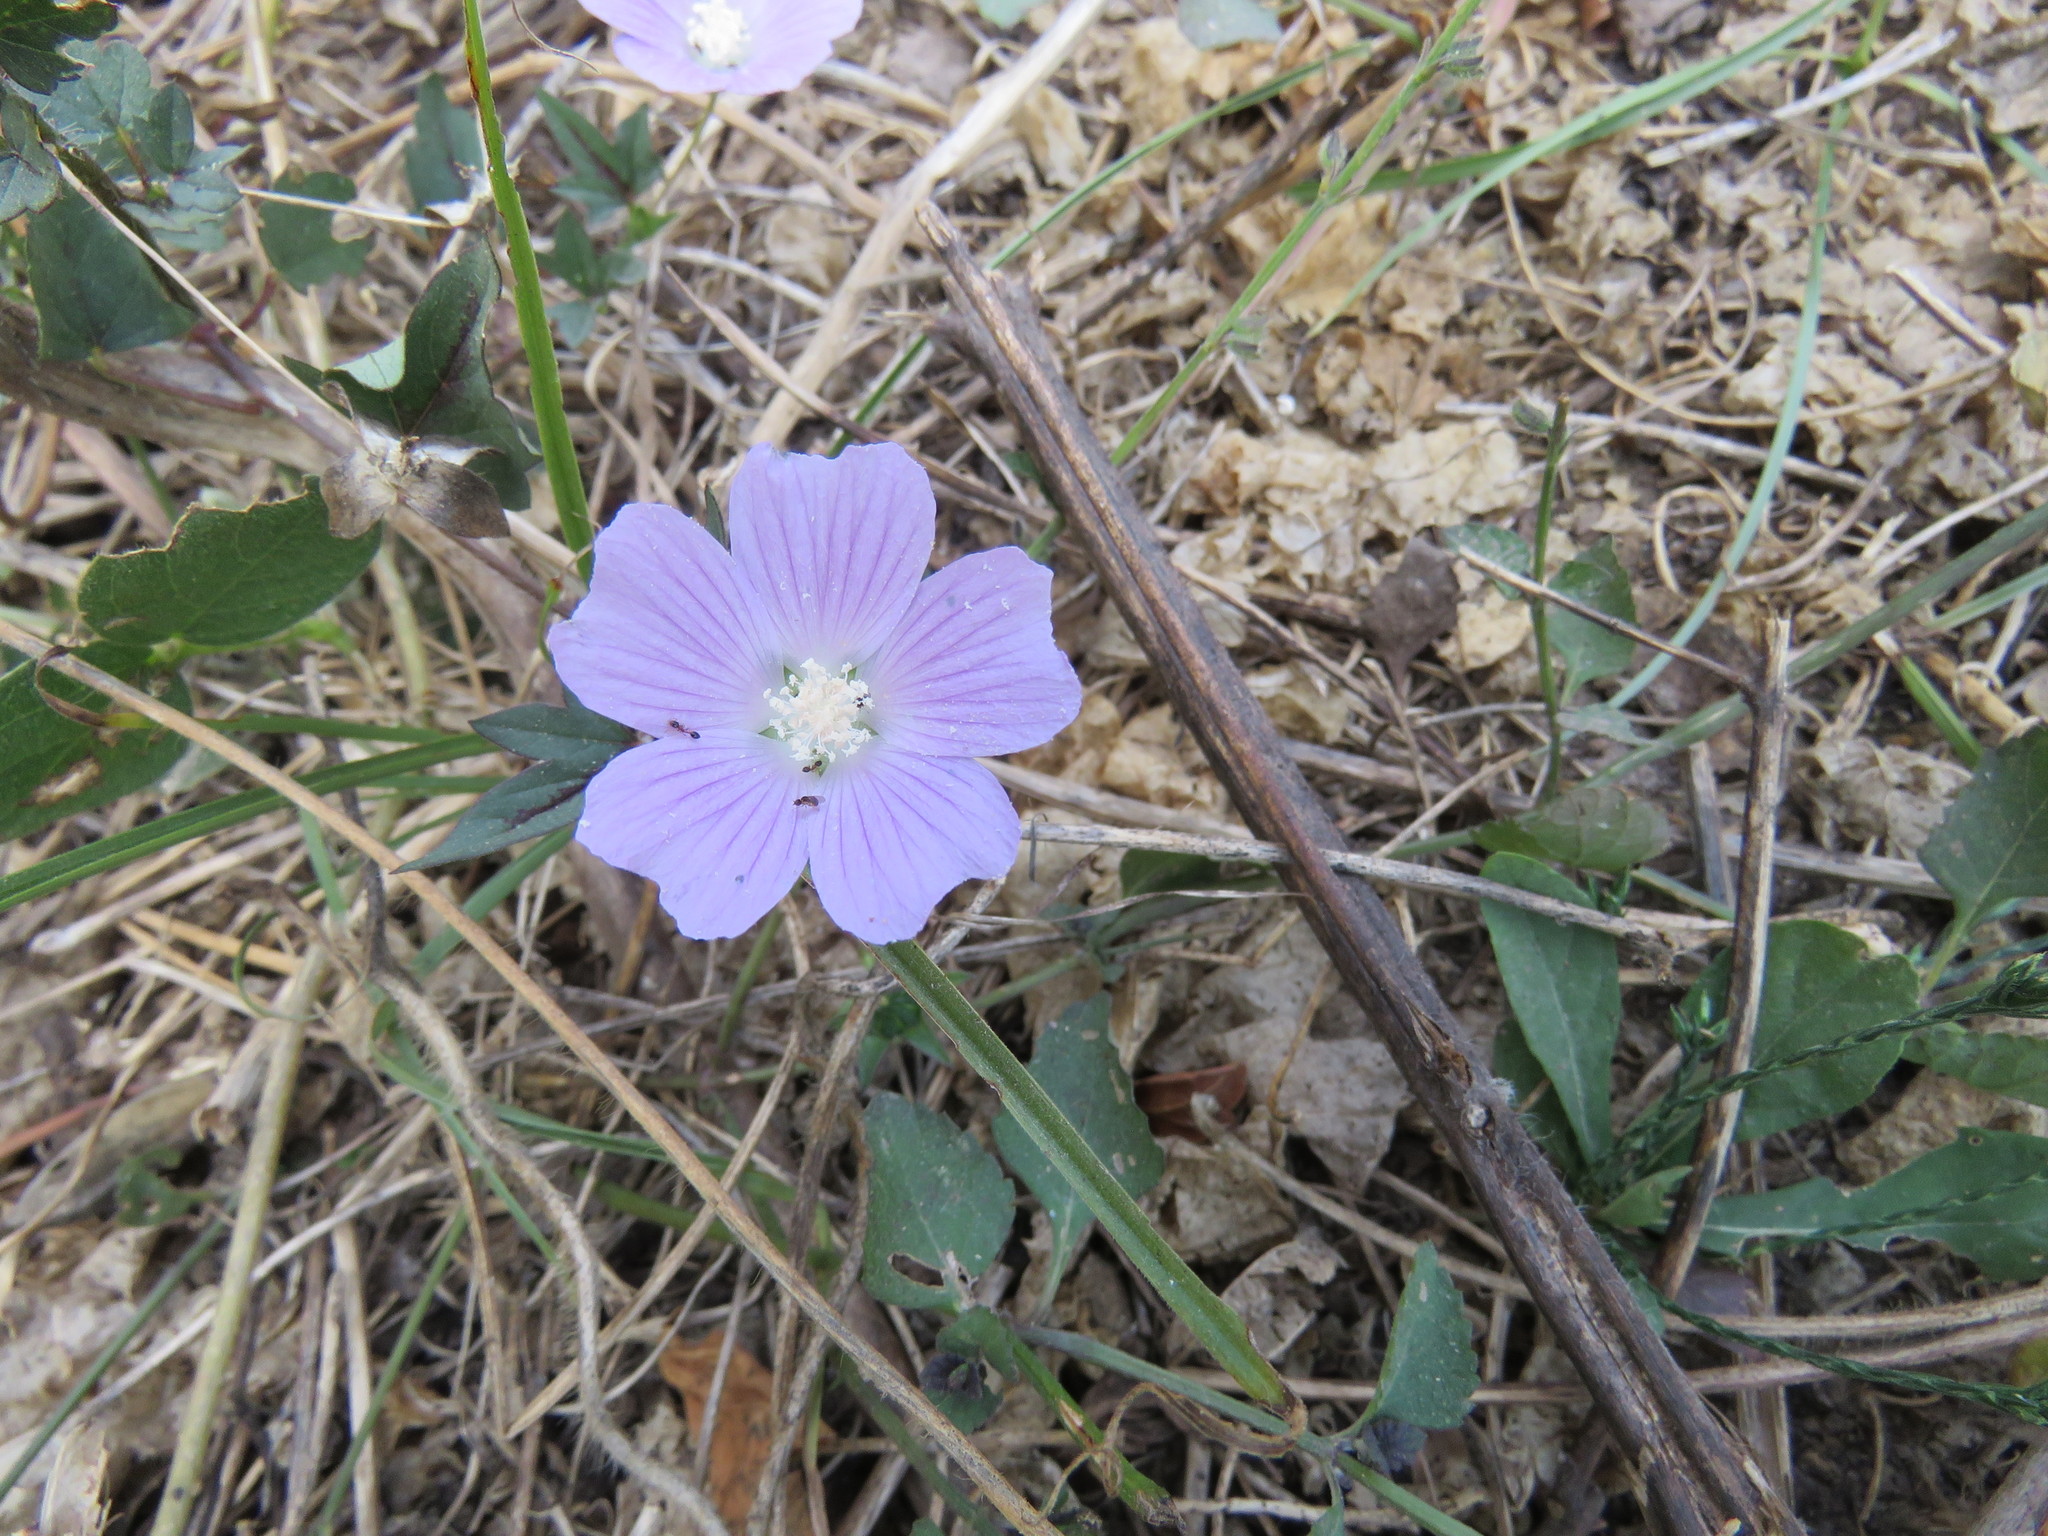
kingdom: Plantae
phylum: Tracheophyta
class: Magnoliopsida
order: Malvales
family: Malvaceae
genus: Anoda
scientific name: Anoda cristata
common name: Spurred anoda
